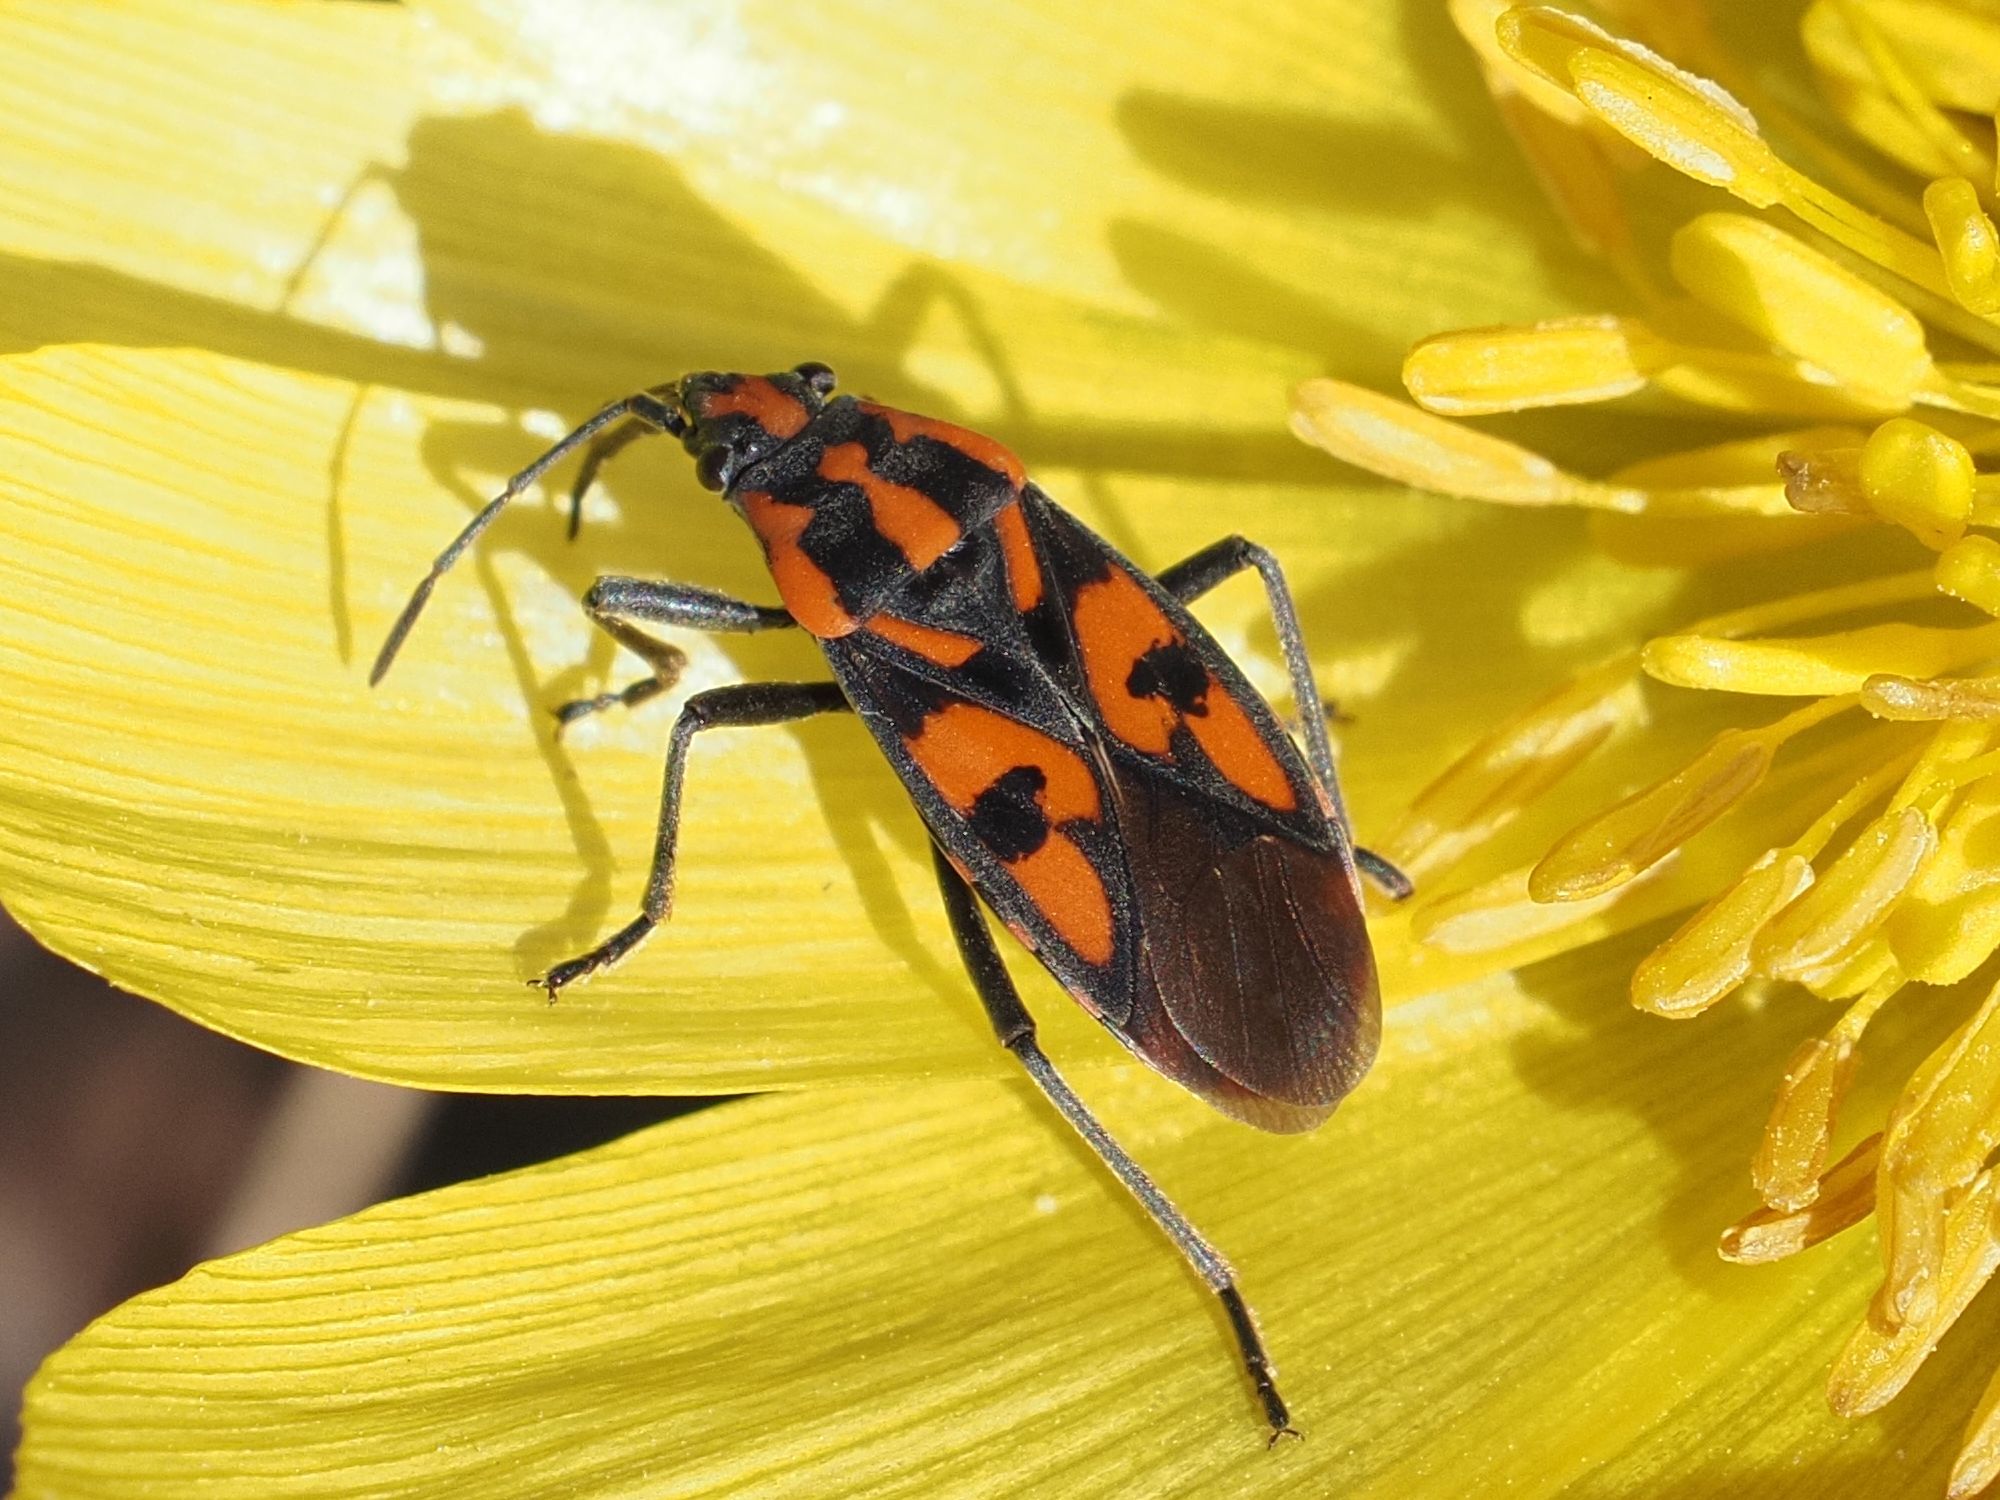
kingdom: Animalia
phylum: Arthropoda
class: Insecta
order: Hemiptera
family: Lygaeidae
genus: Spilostethus
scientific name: Spilostethus saxatilis
